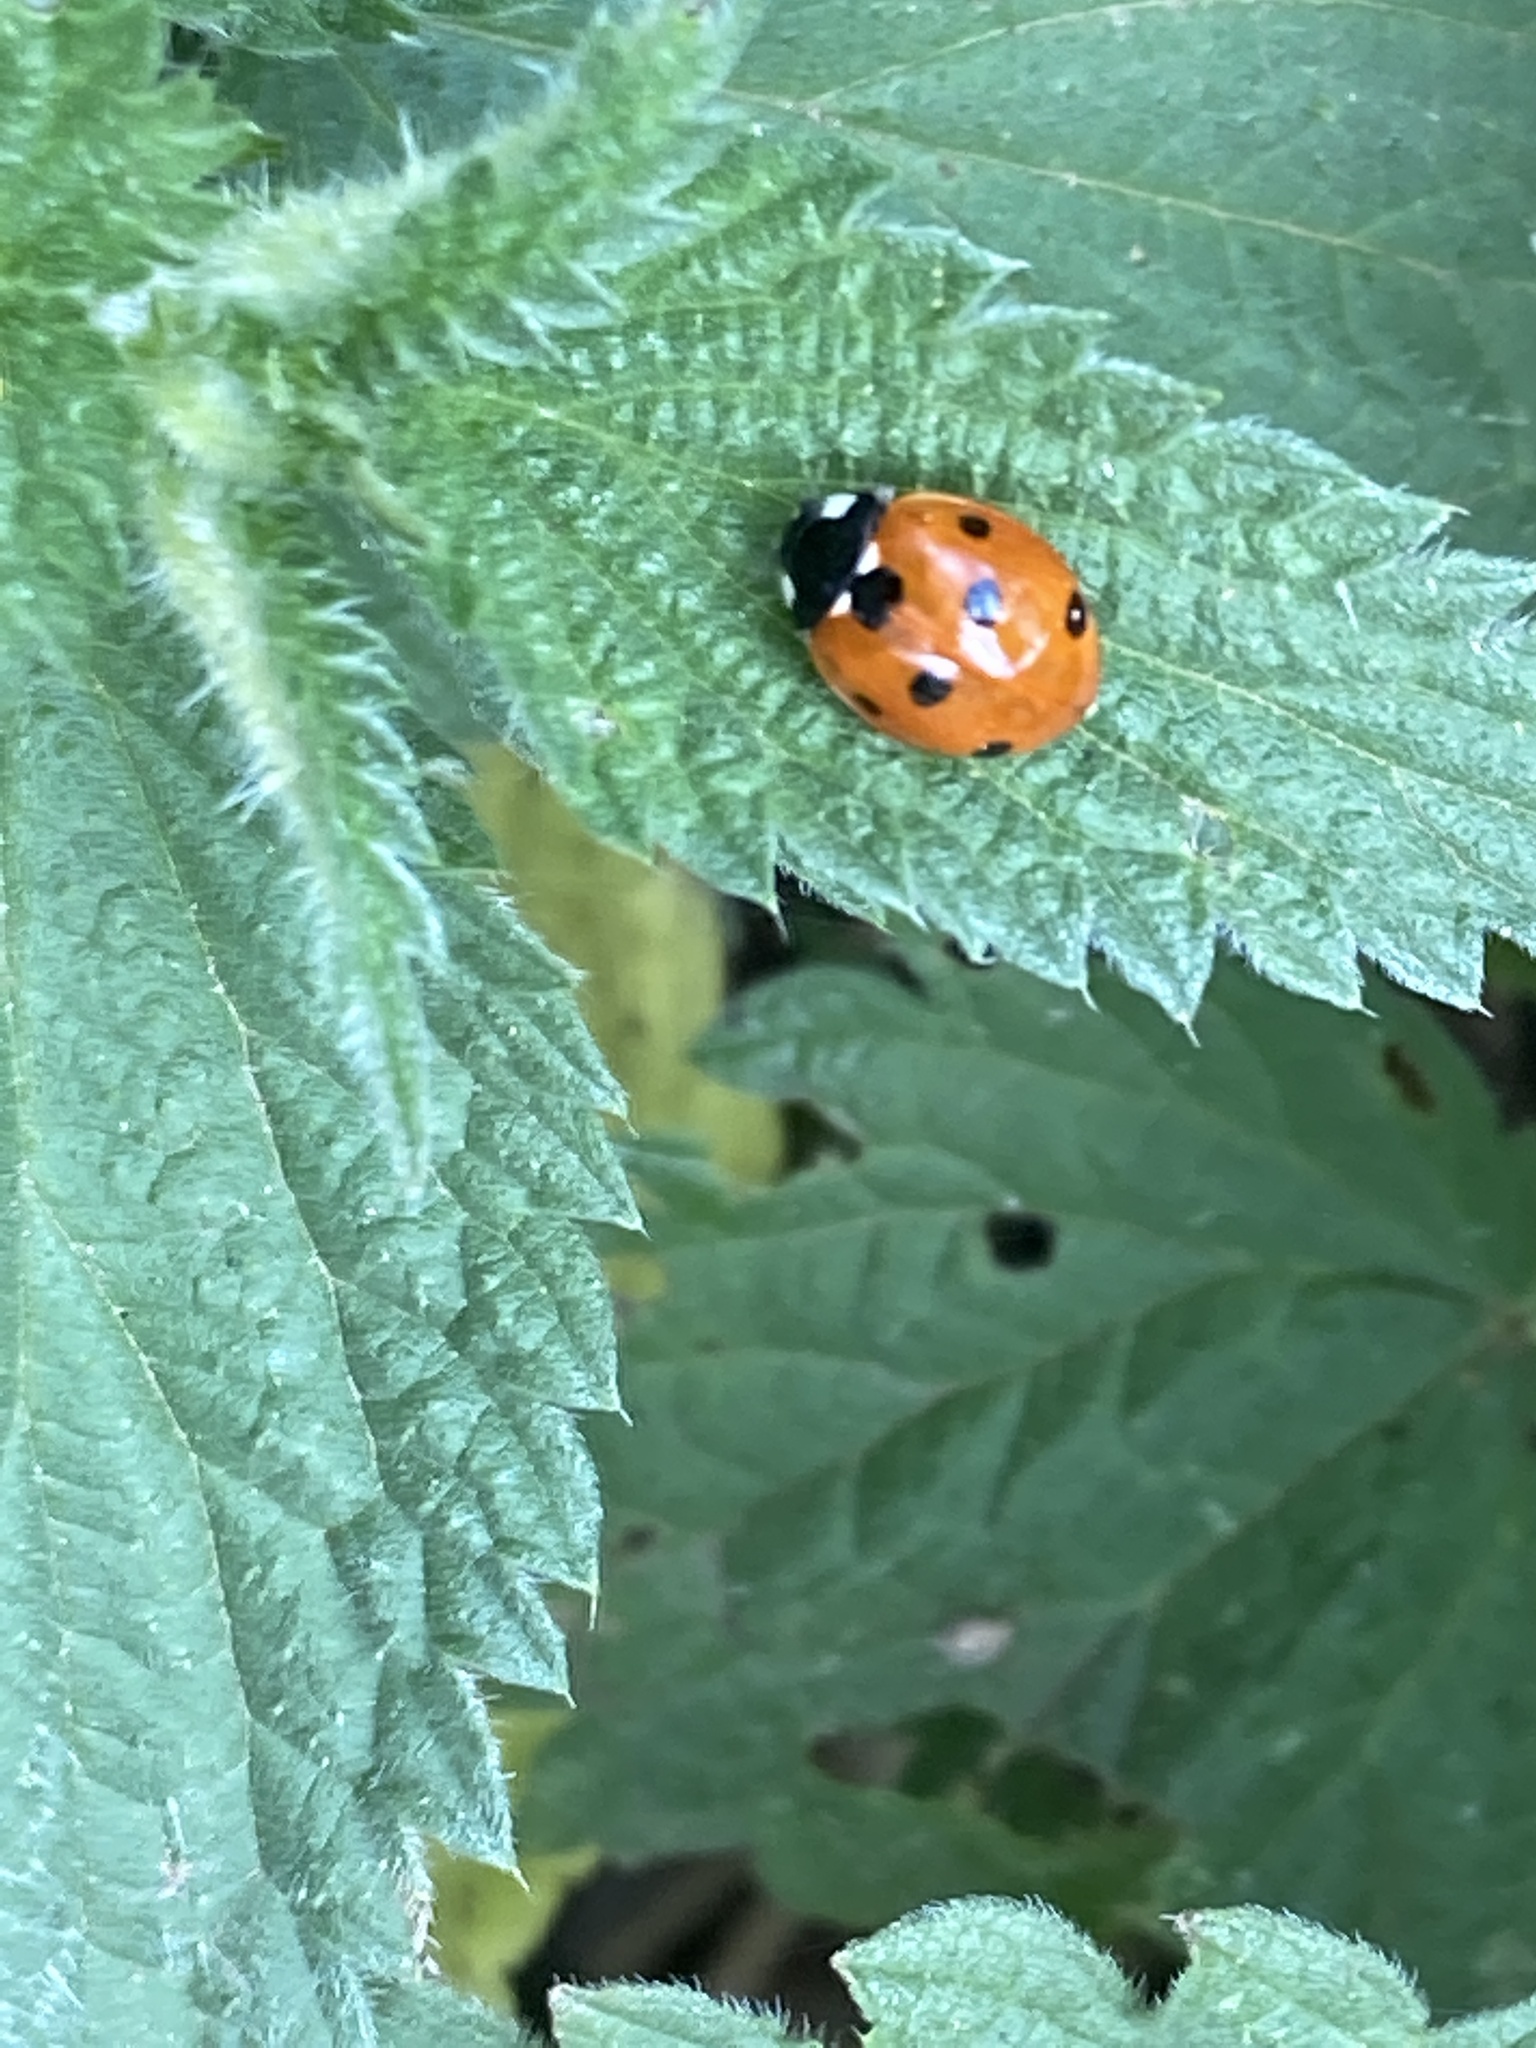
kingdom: Animalia
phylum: Arthropoda
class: Insecta
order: Coleoptera
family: Coccinellidae
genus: Coccinella
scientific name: Coccinella septempunctata
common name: Sevenspotted lady beetle
